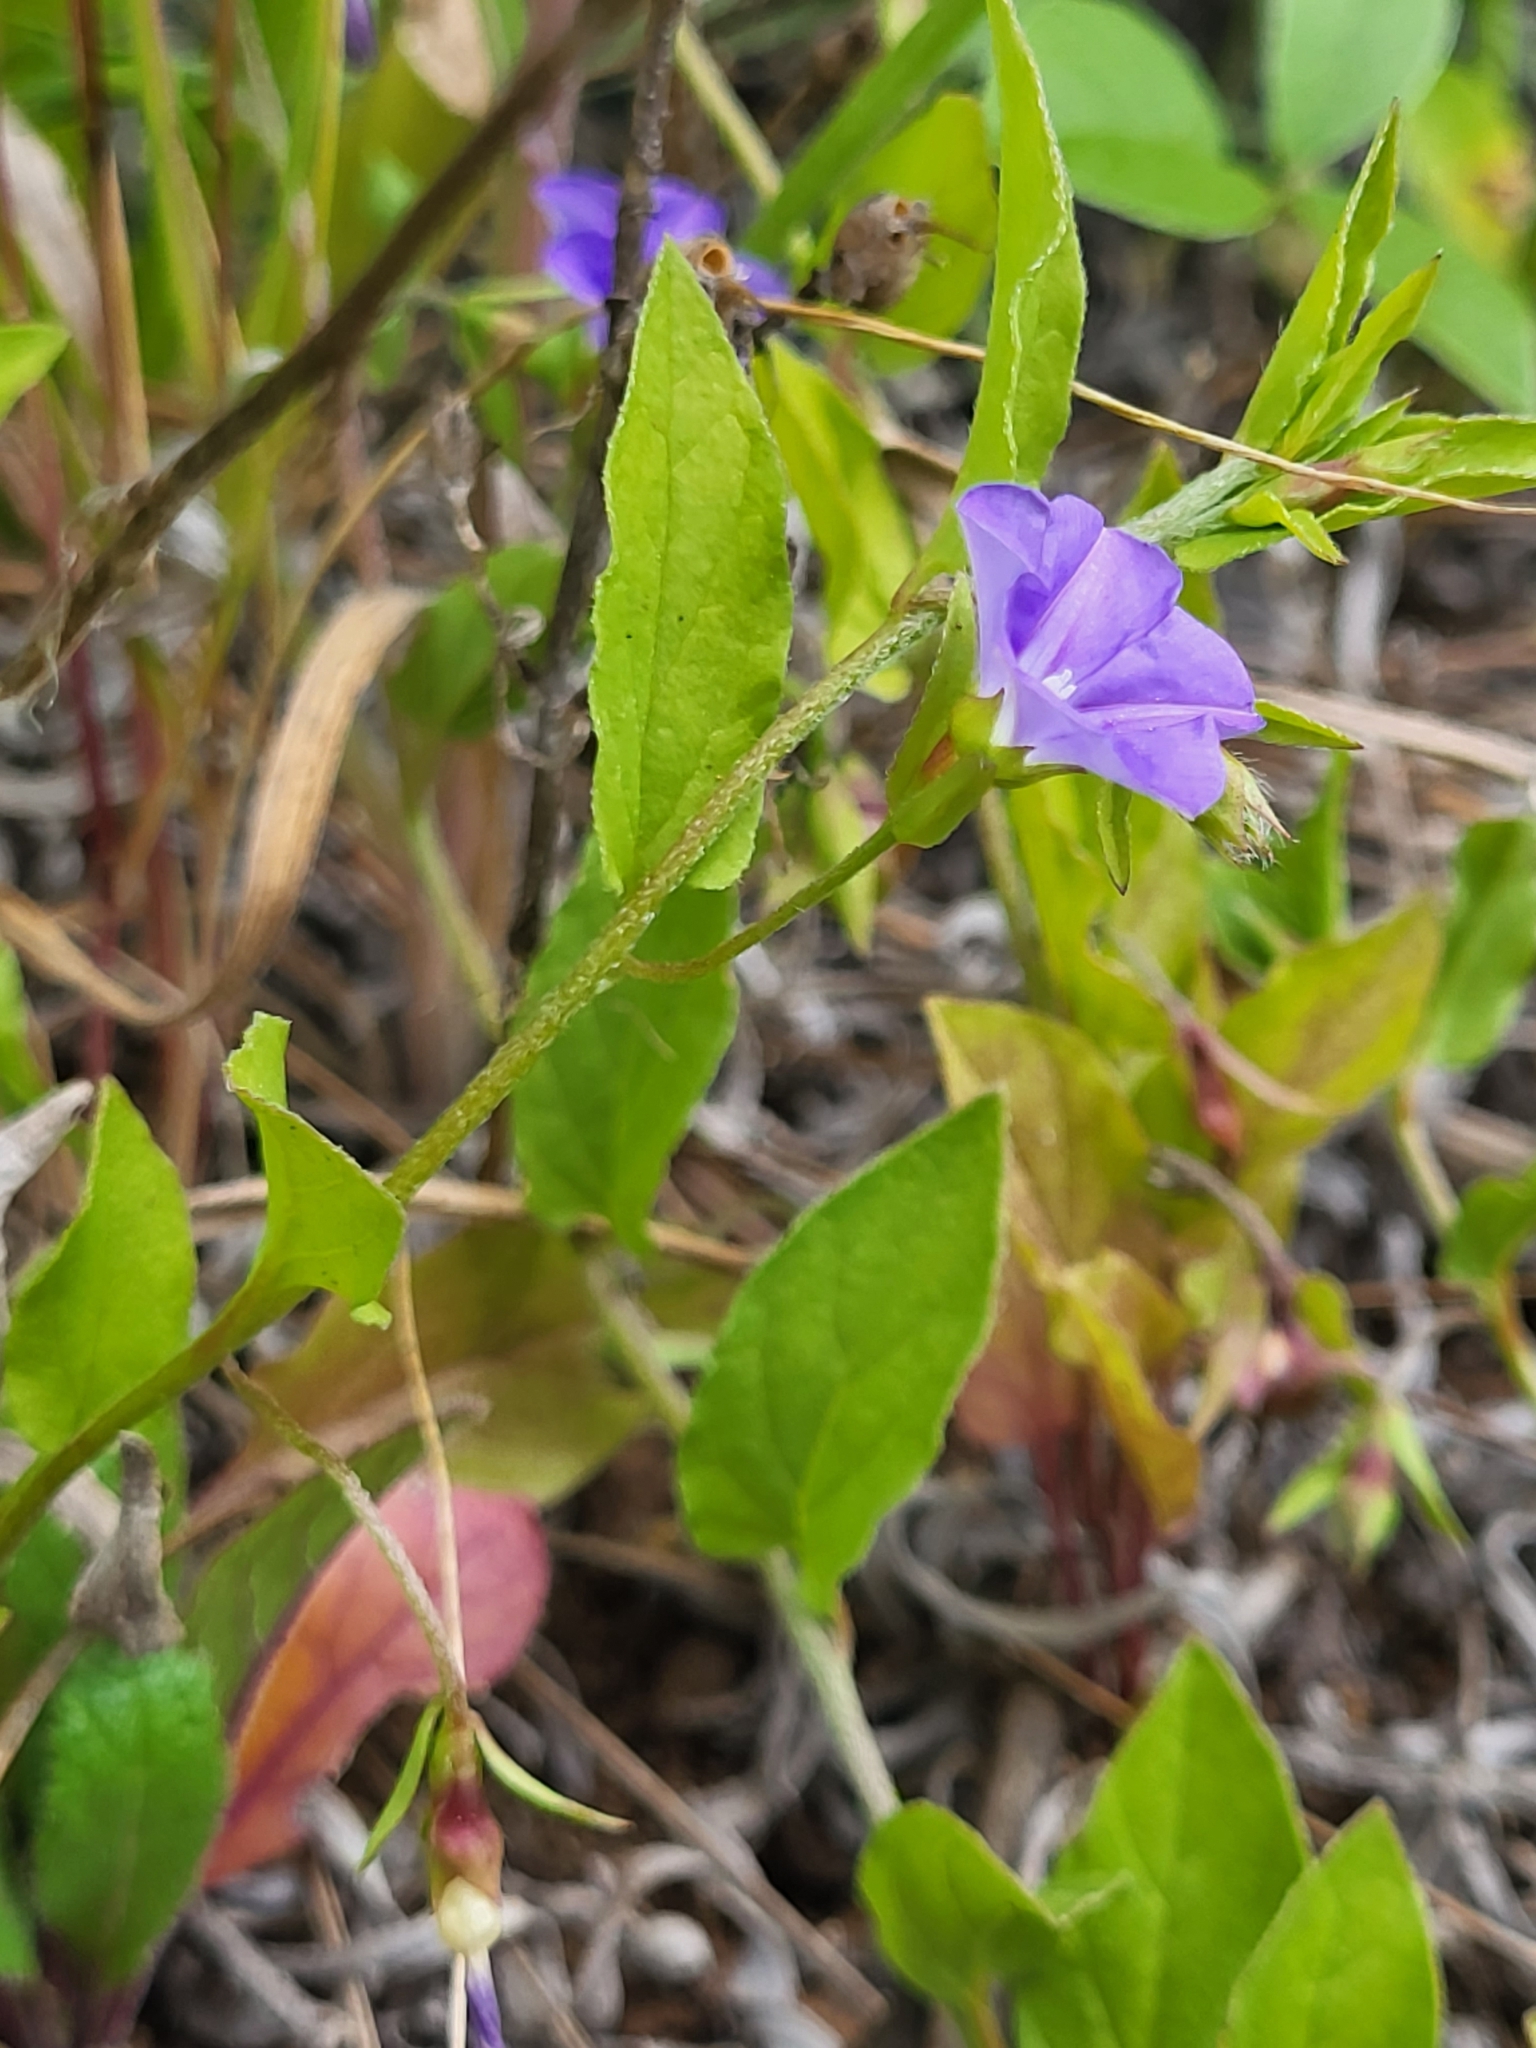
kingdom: Plantae
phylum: Tracheophyta
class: Magnoliopsida
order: Solanales
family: Convolvulaceae
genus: Convolvulus
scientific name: Convolvulus siculus
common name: Small blue-convolvulus
